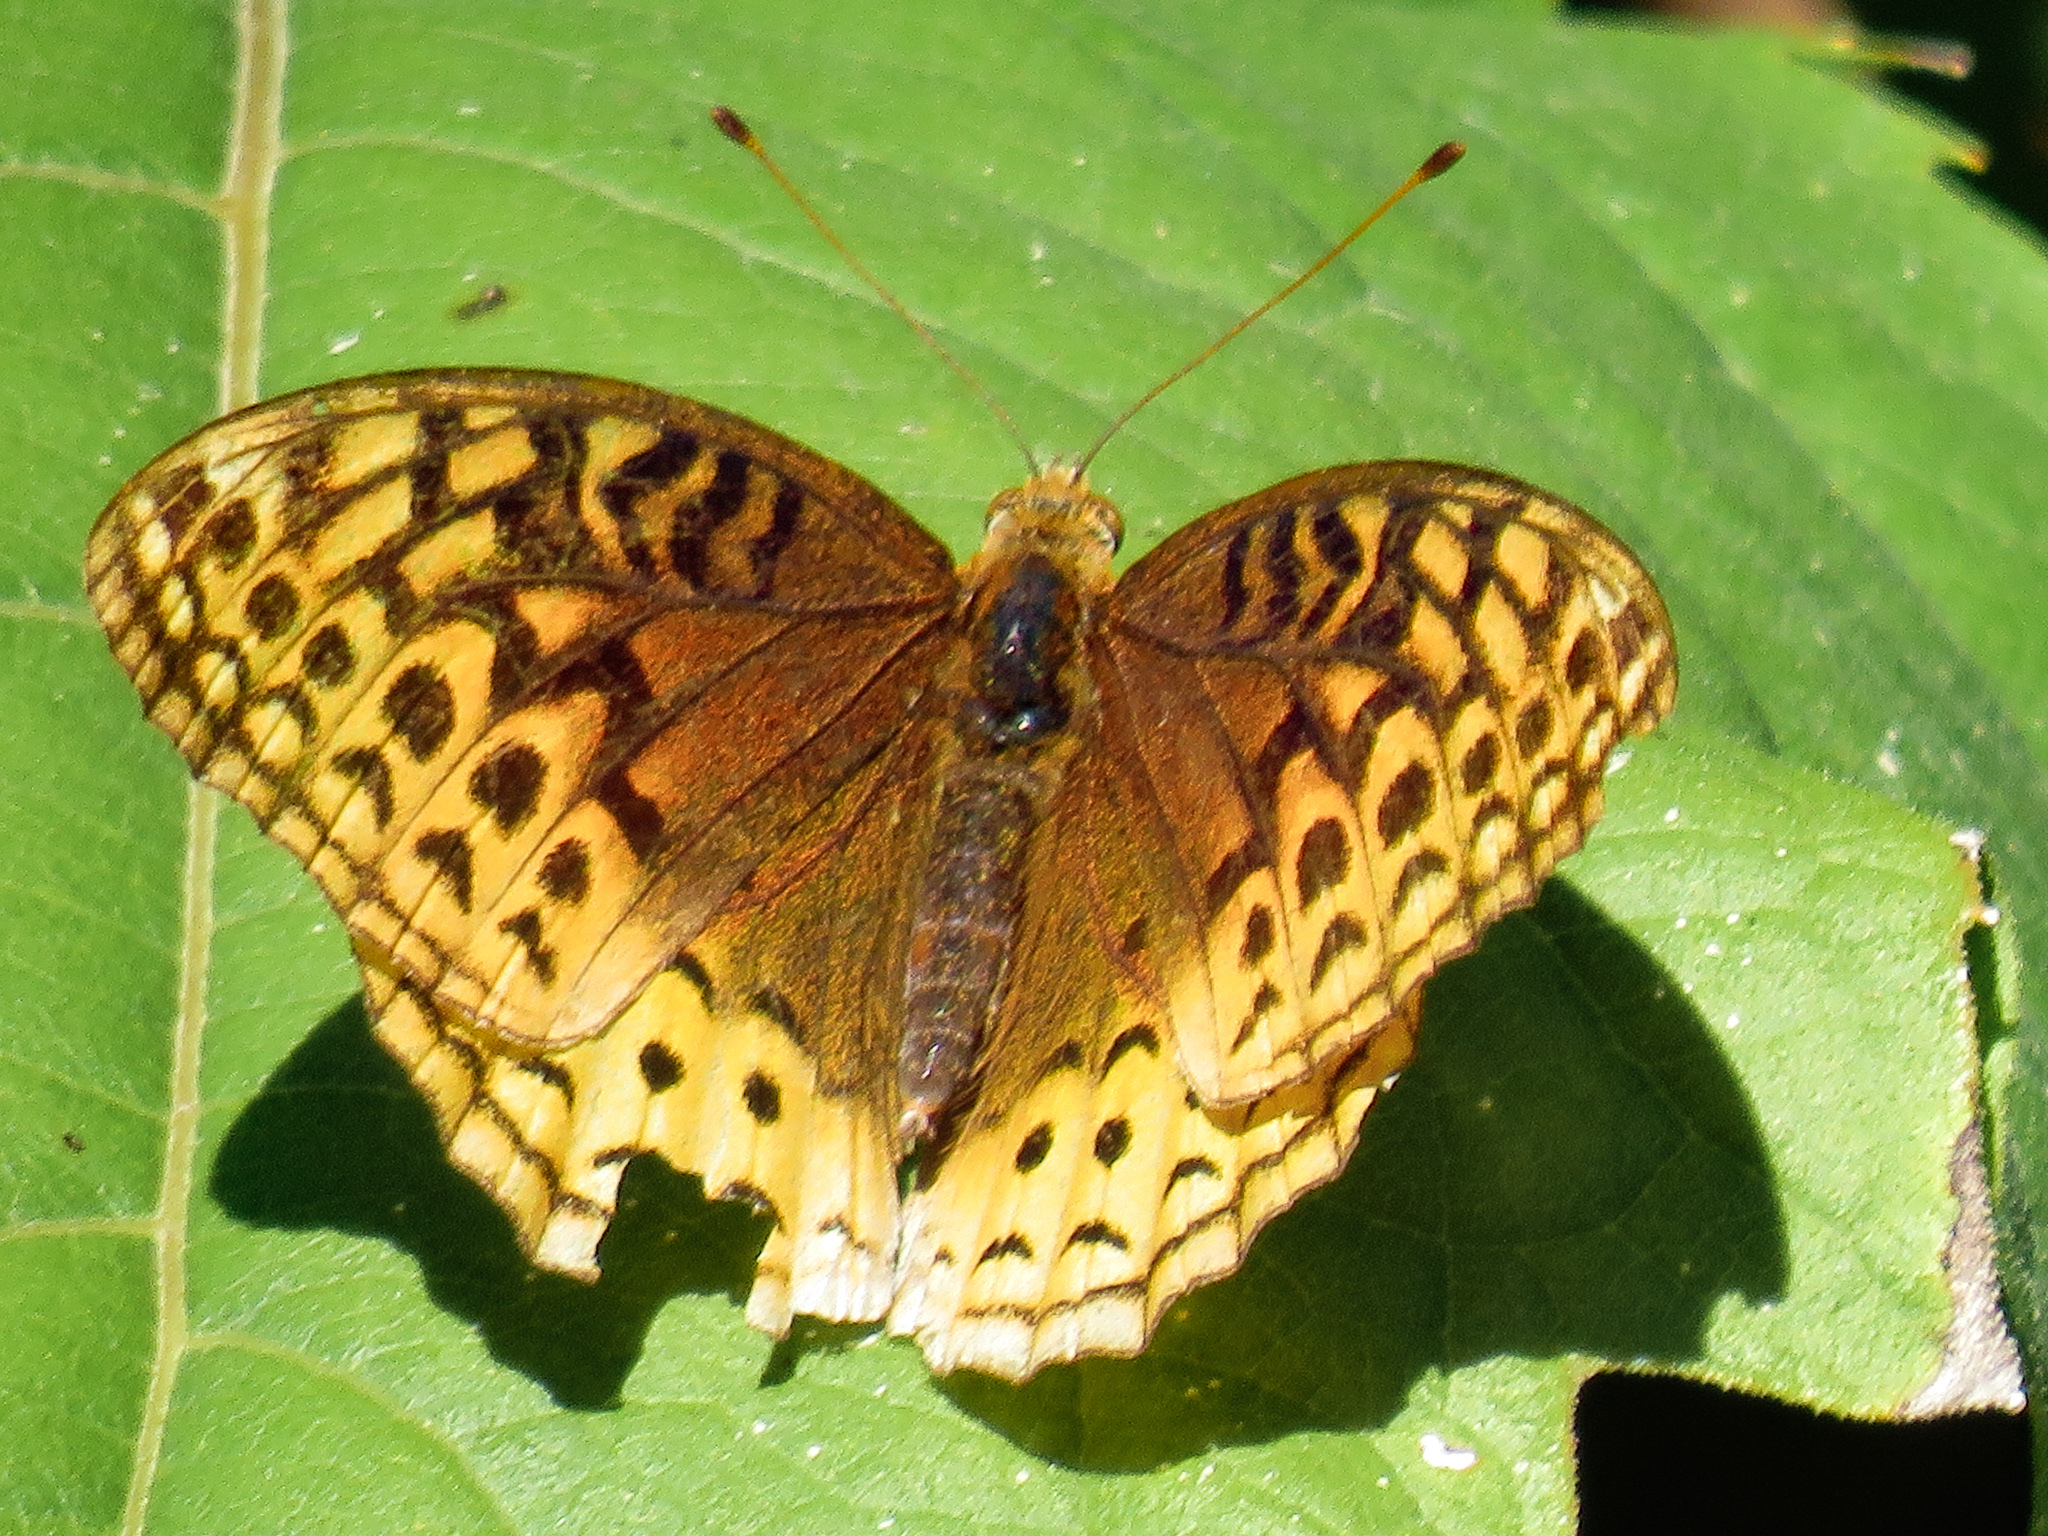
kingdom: Animalia
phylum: Arthropoda
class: Insecta
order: Lepidoptera
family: Nymphalidae
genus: Speyeria
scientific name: Speyeria cybele
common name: Great spangled fritillary
